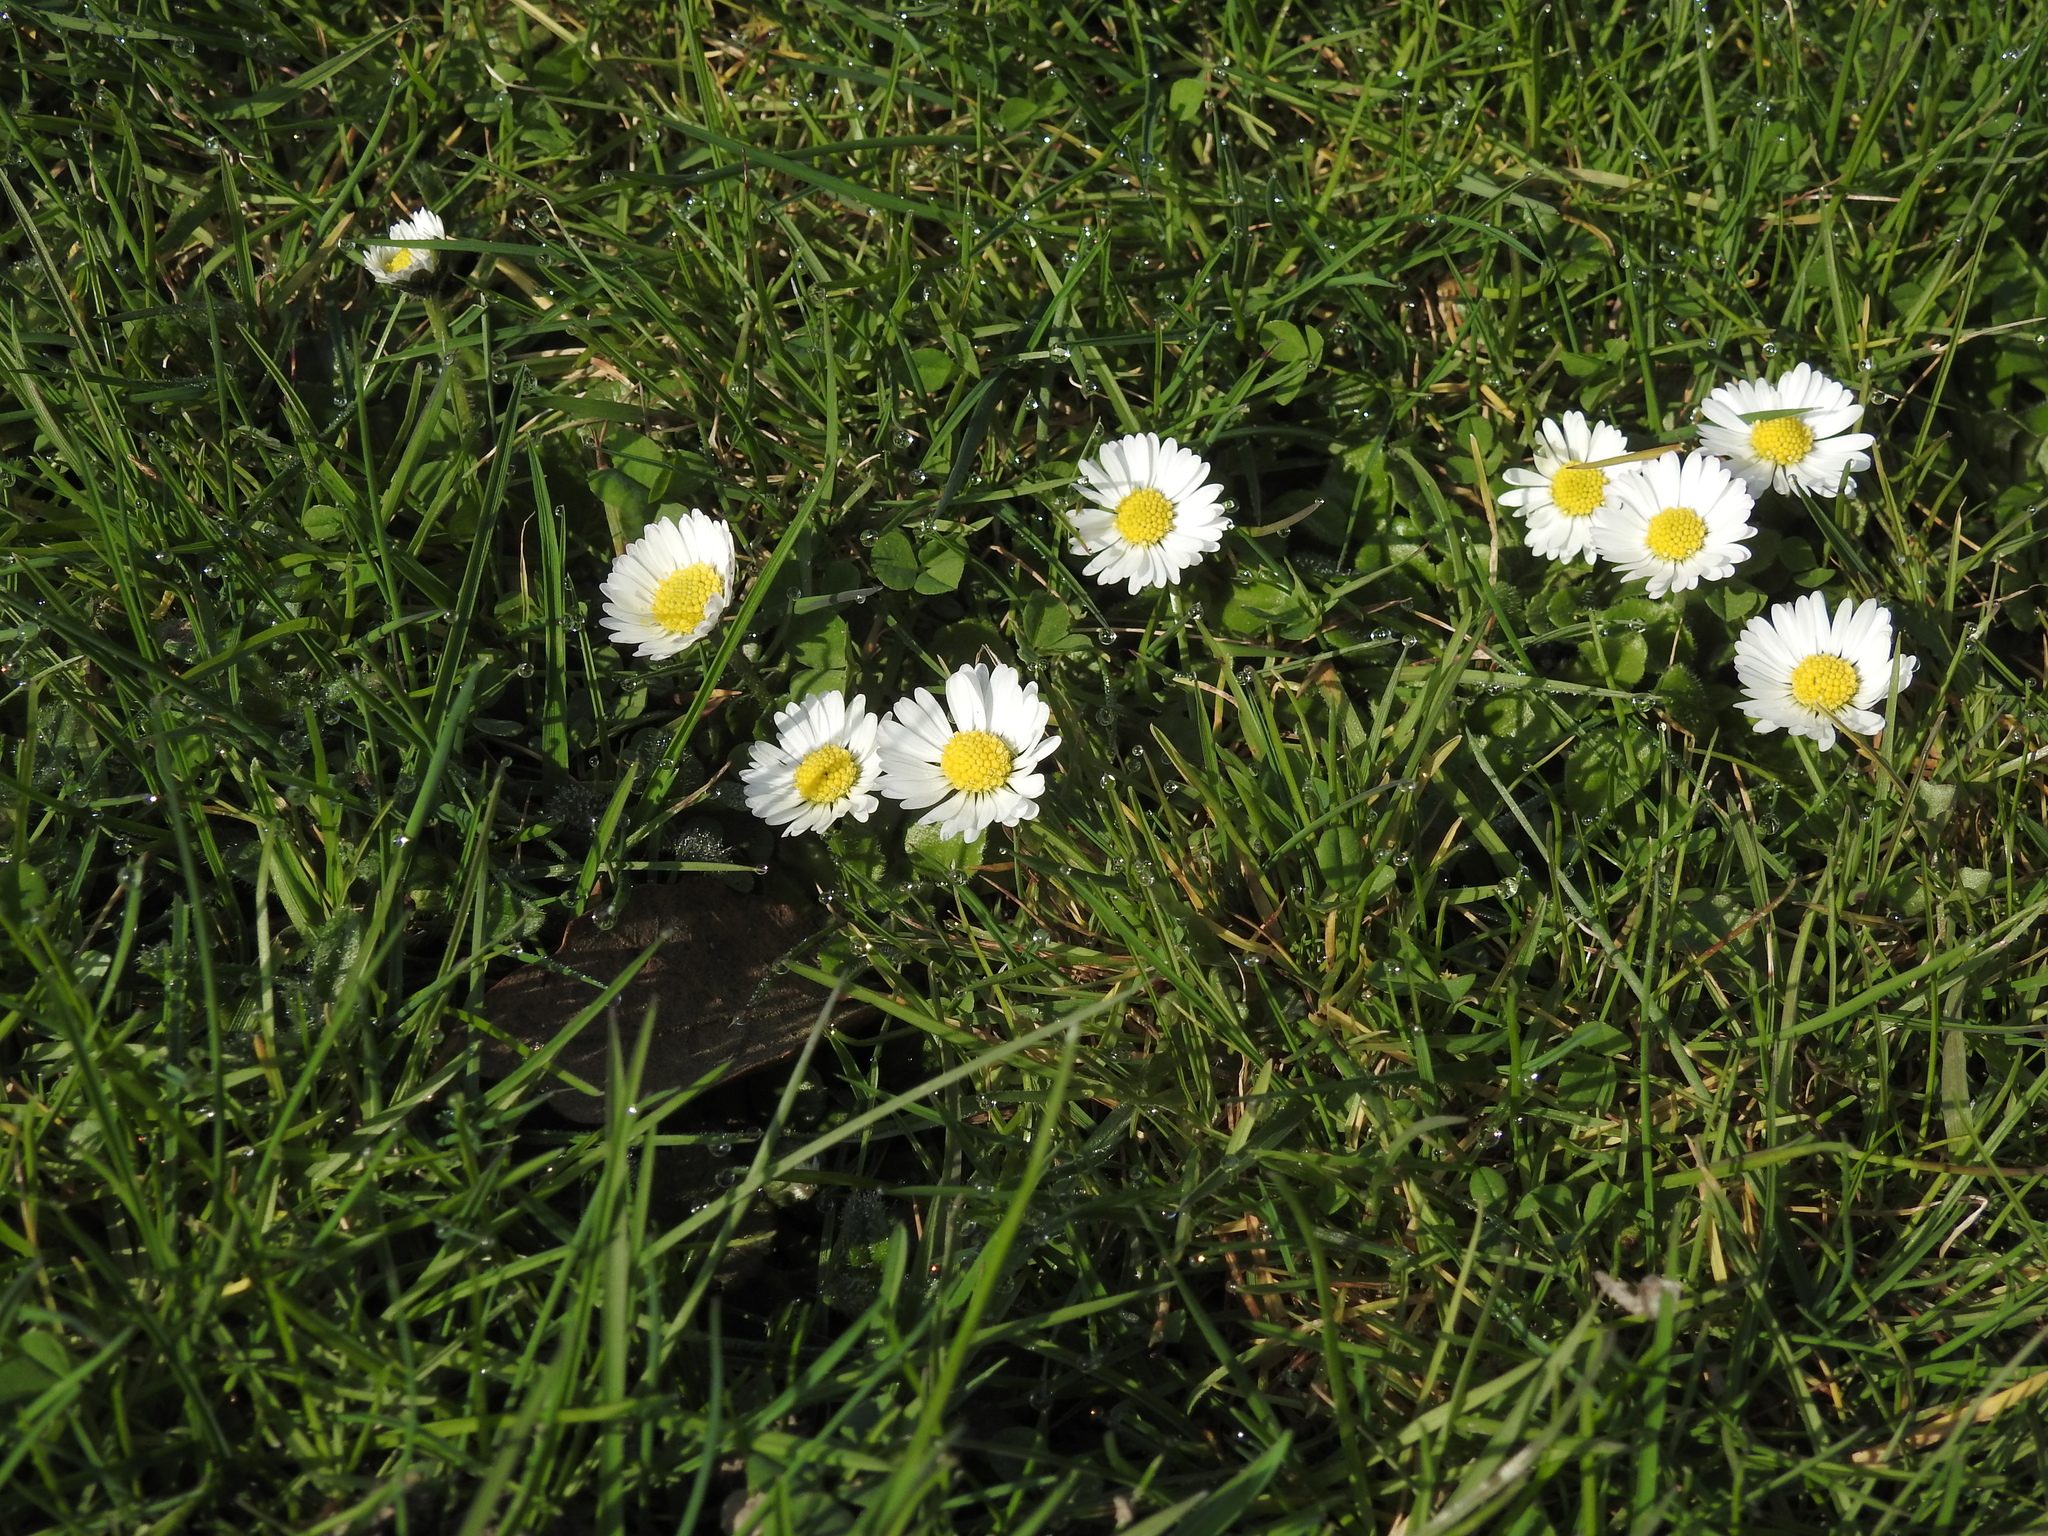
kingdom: Plantae
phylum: Tracheophyta
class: Magnoliopsida
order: Asterales
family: Asteraceae
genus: Bellis
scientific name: Bellis perennis
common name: Lawndaisy
